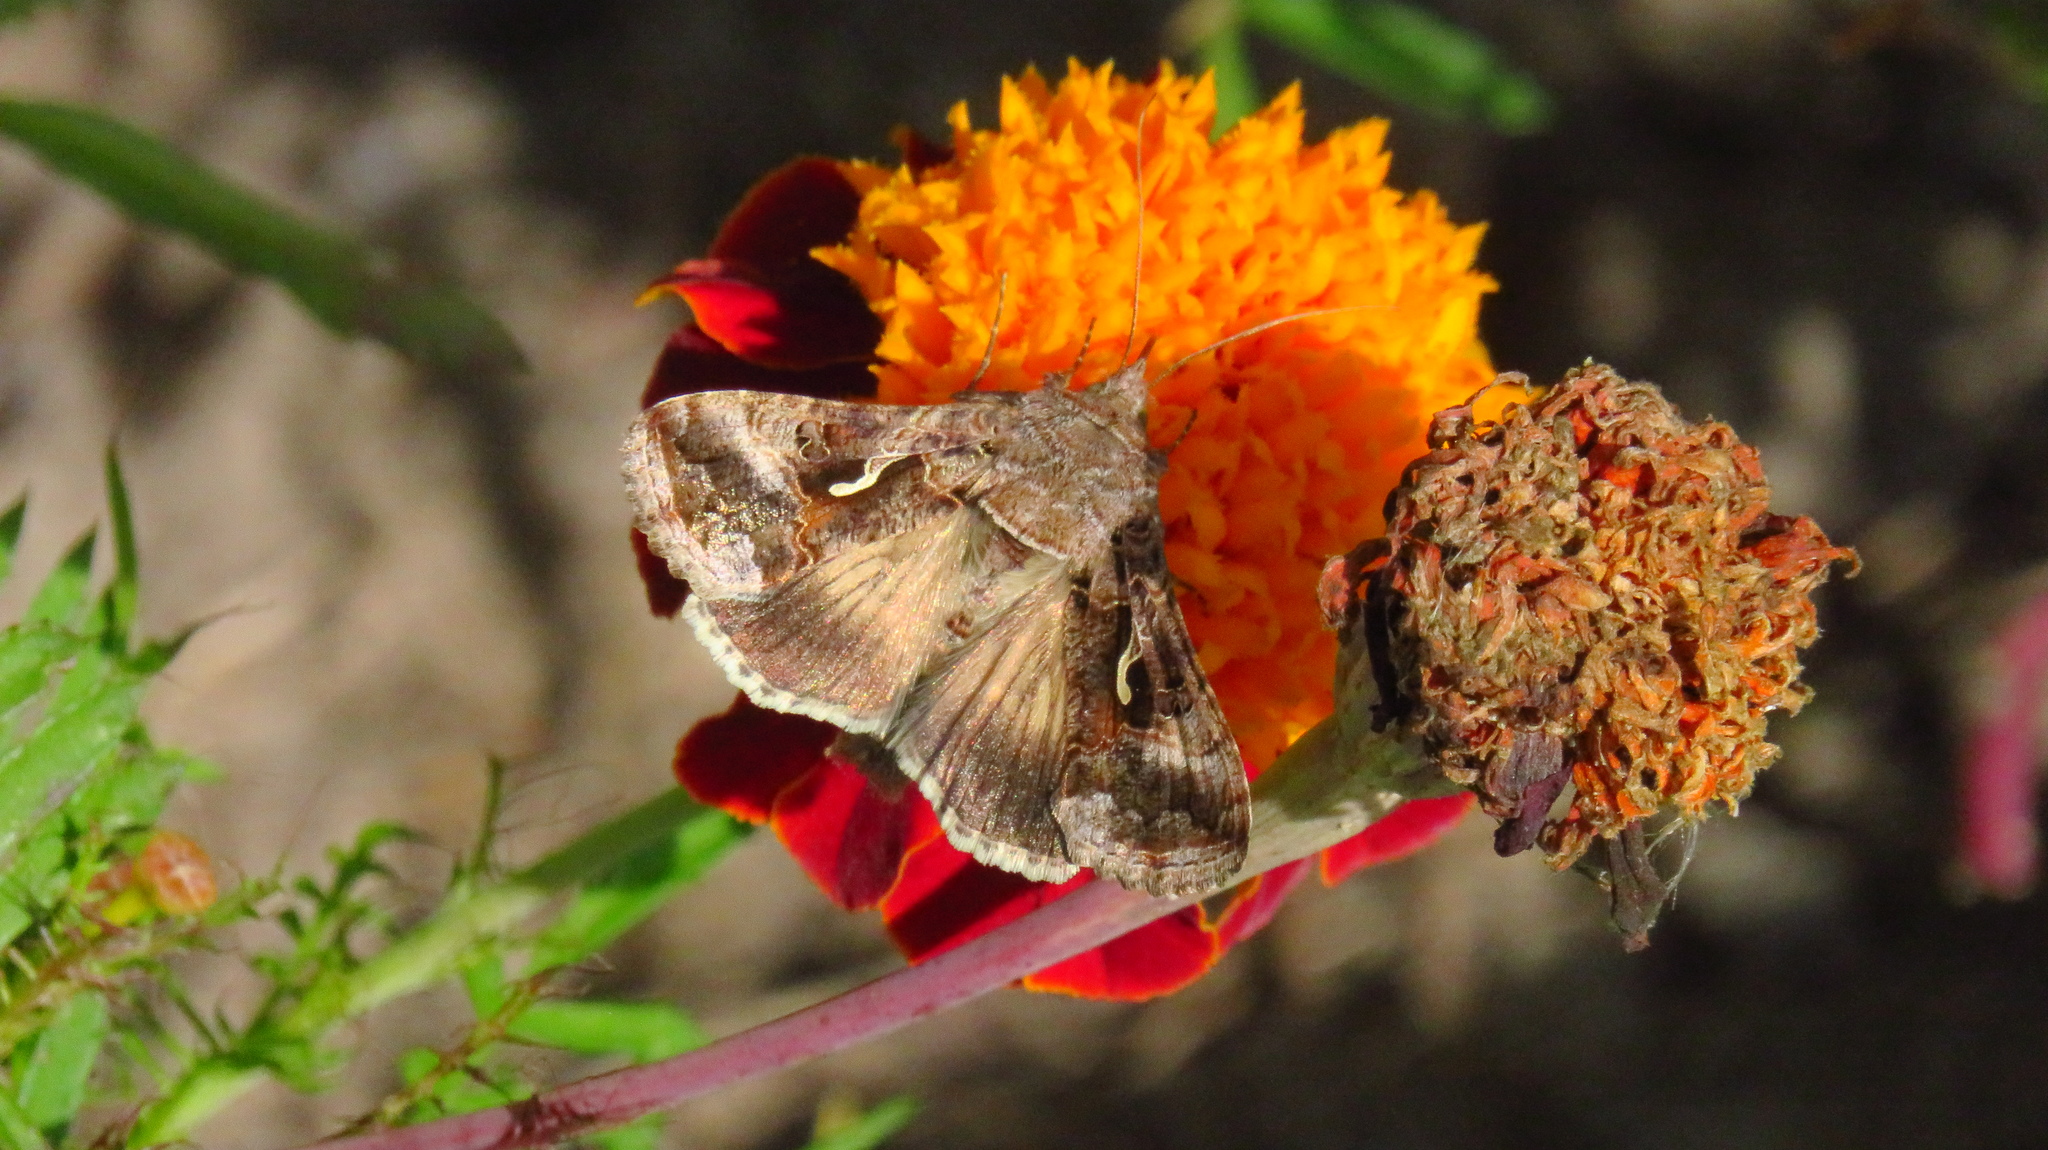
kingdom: Animalia
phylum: Arthropoda
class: Insecta
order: Lepidoptera
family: Noctuidae
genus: Autographa
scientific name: Autographa gamma
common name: Silver y
